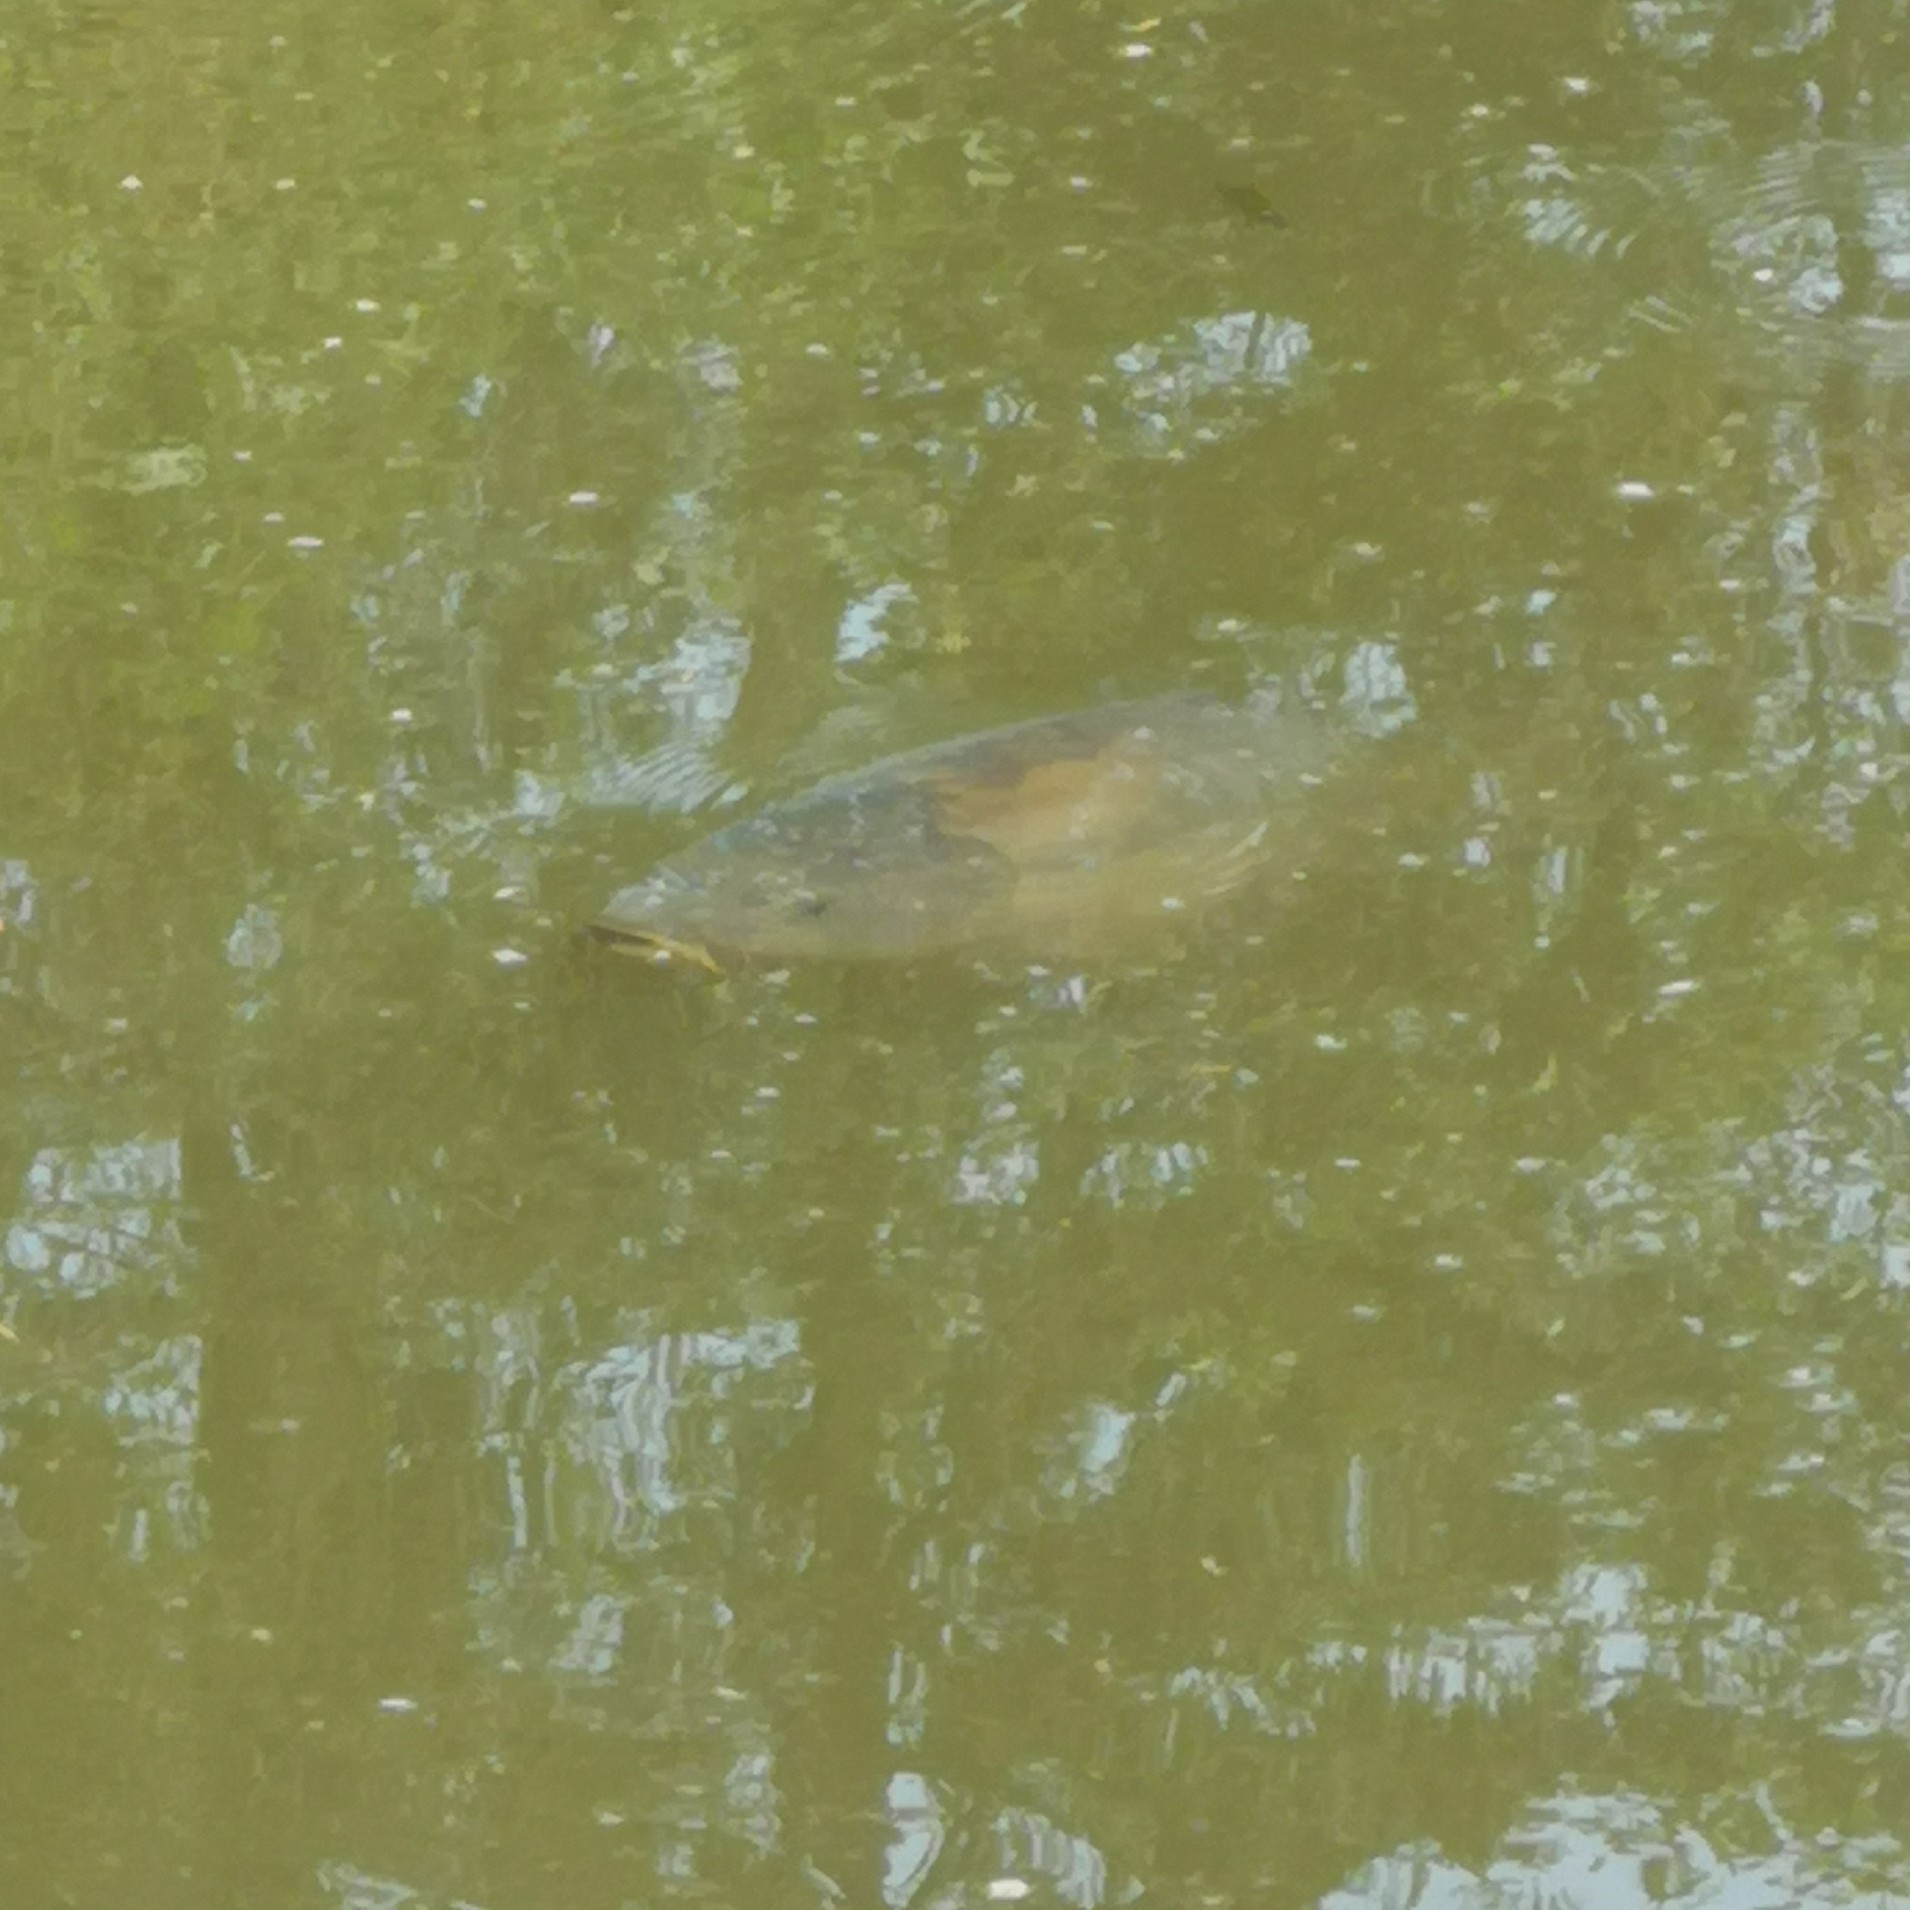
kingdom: Animalia
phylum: Chordata
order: Cypriniformes
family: Cyprinidae
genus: Cyprinus
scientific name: Cyprinus carpio
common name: Common carp
